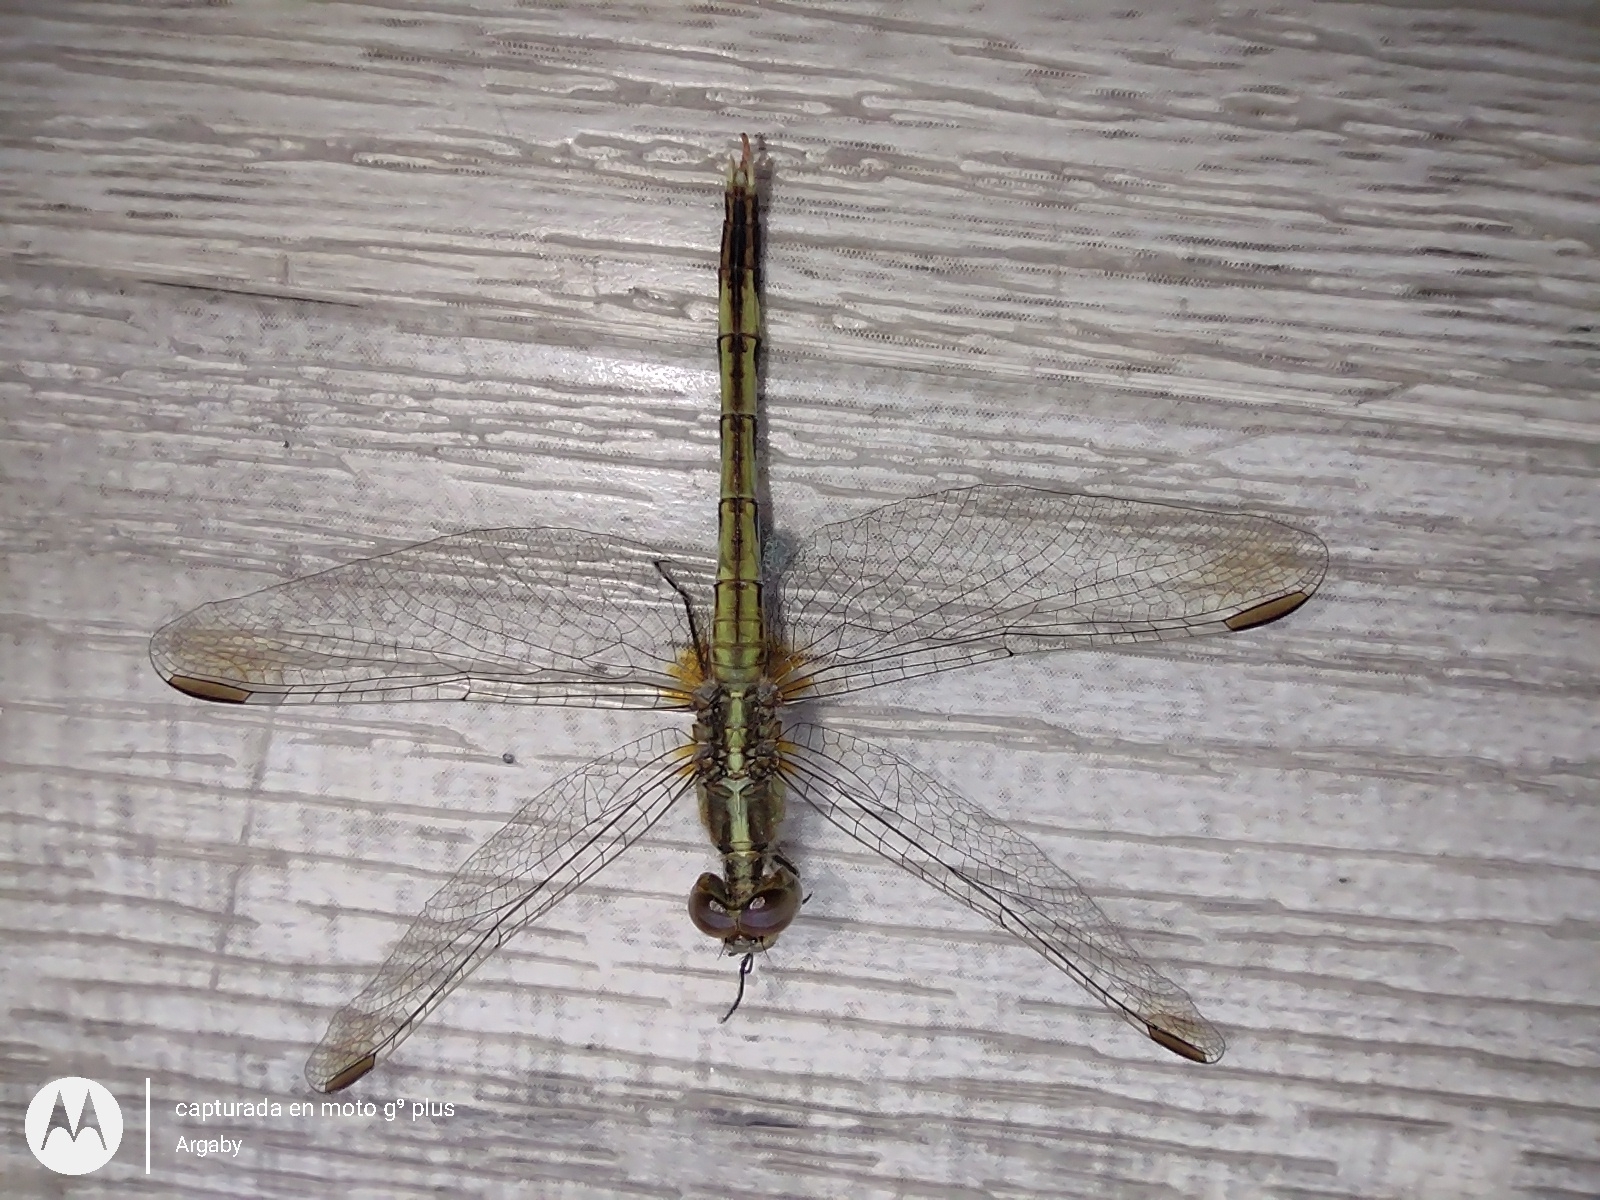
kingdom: Animalia
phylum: Arthropoda
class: Insecta
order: Odonata
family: Libellulidae
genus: Erythrodiplax
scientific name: Erythrodiplax nigricans
